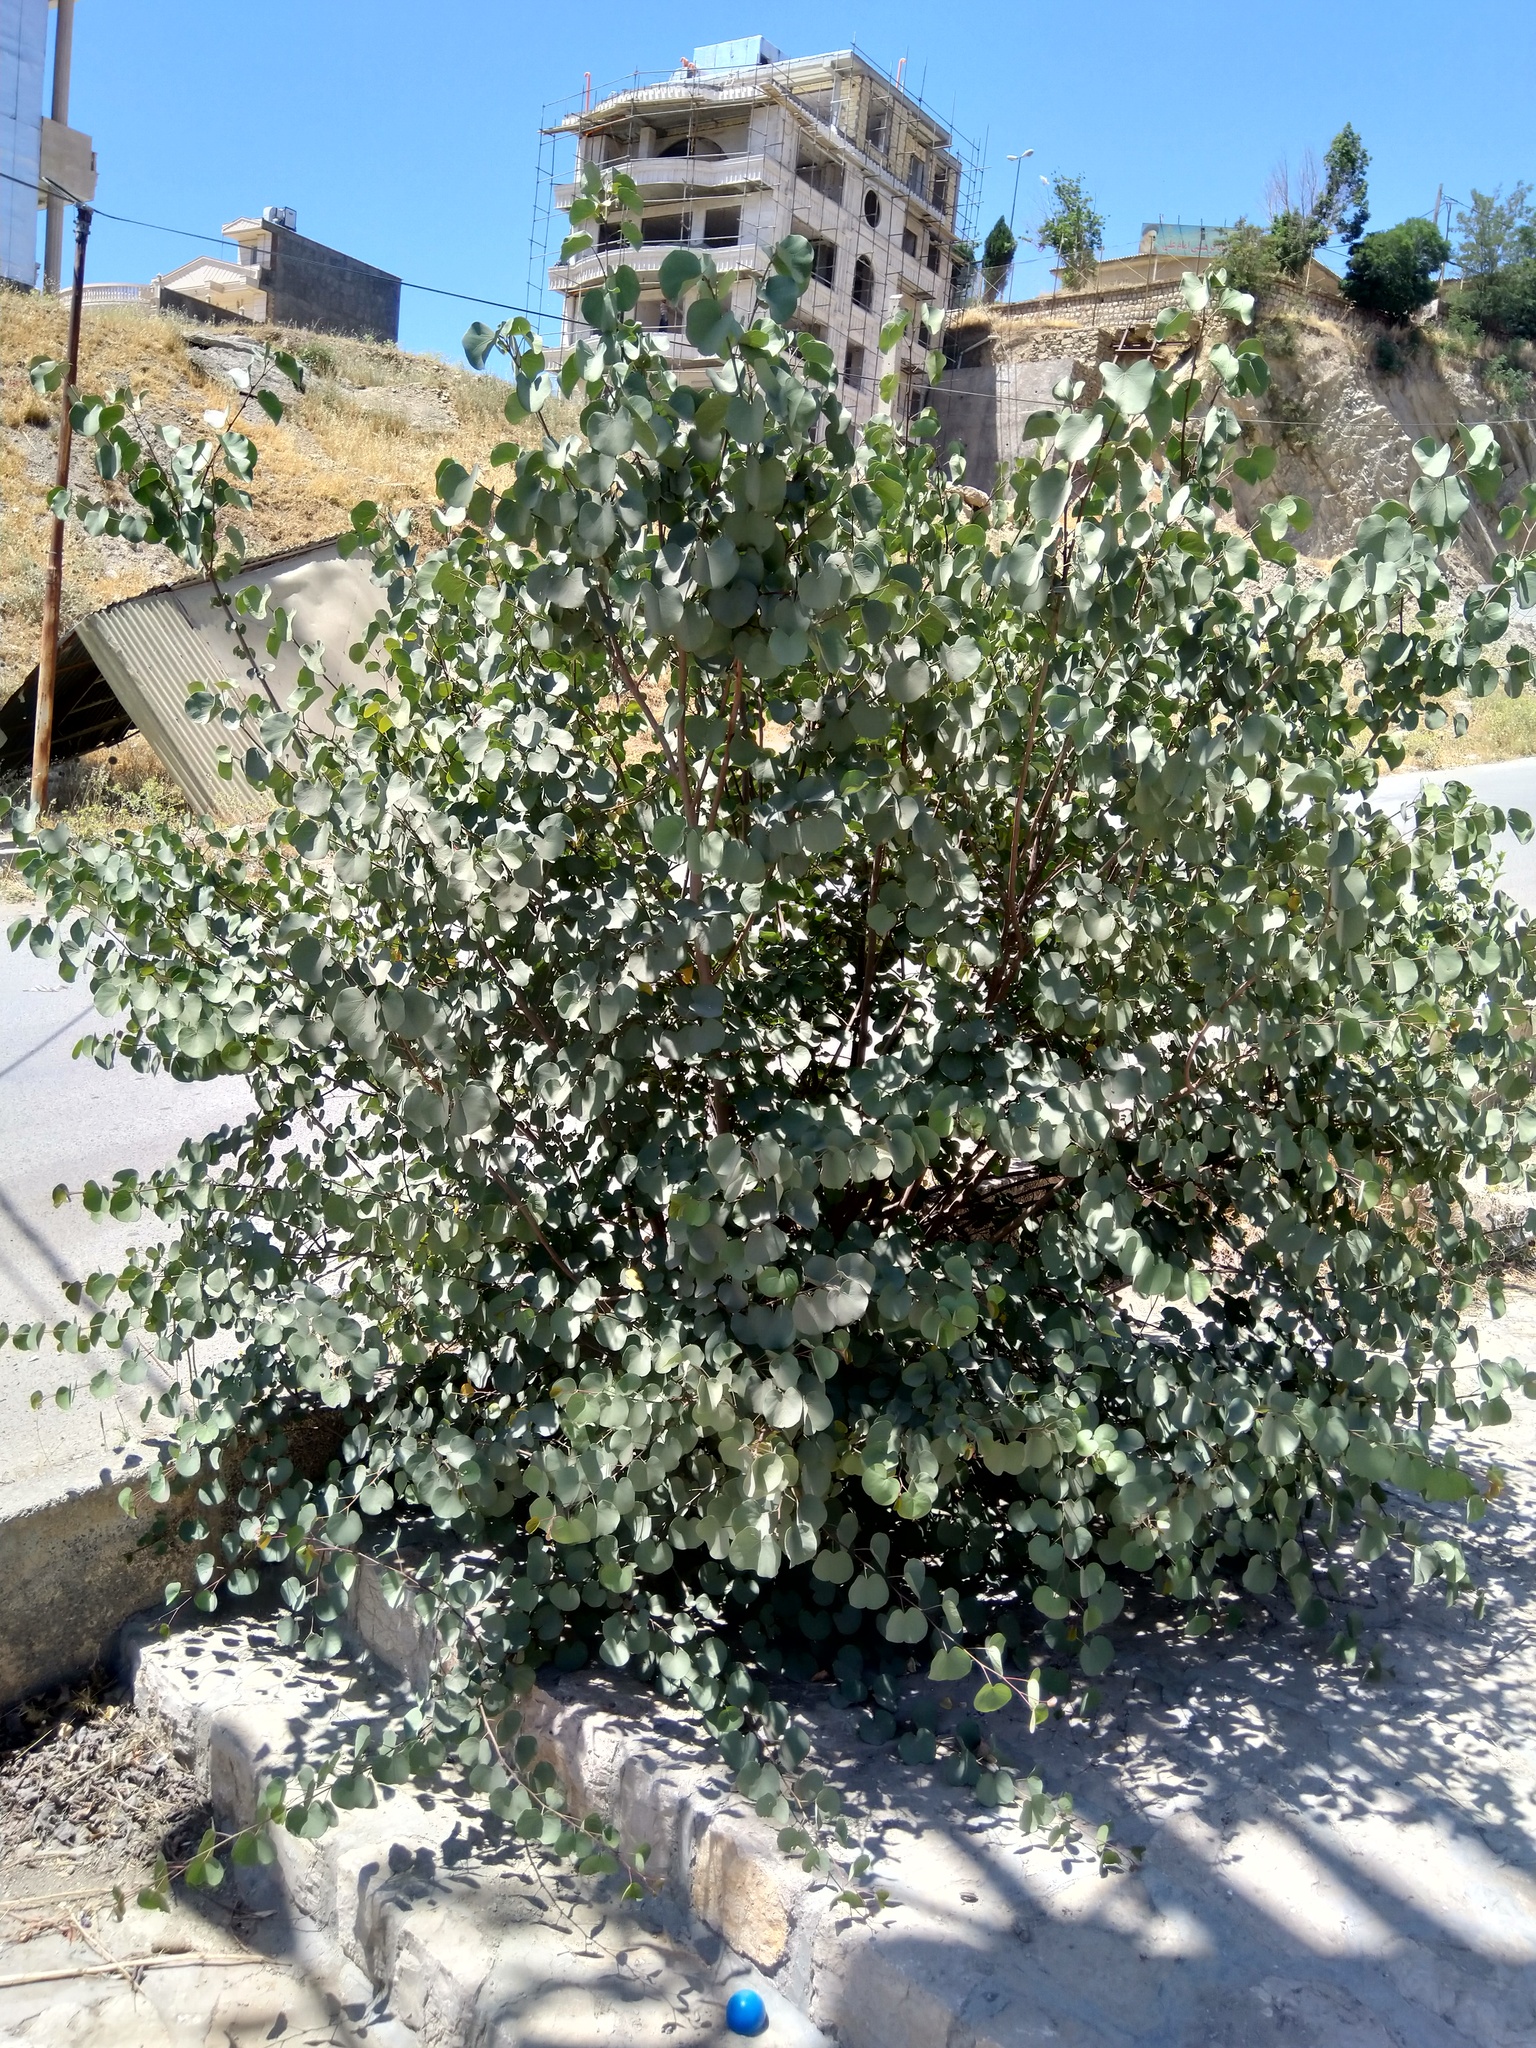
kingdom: Plantae
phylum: Tracheophyta
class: Magnoliopsida
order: Fabales
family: Fabaceae
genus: Cercis
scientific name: Cercis siliquastrum
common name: Judas tree
